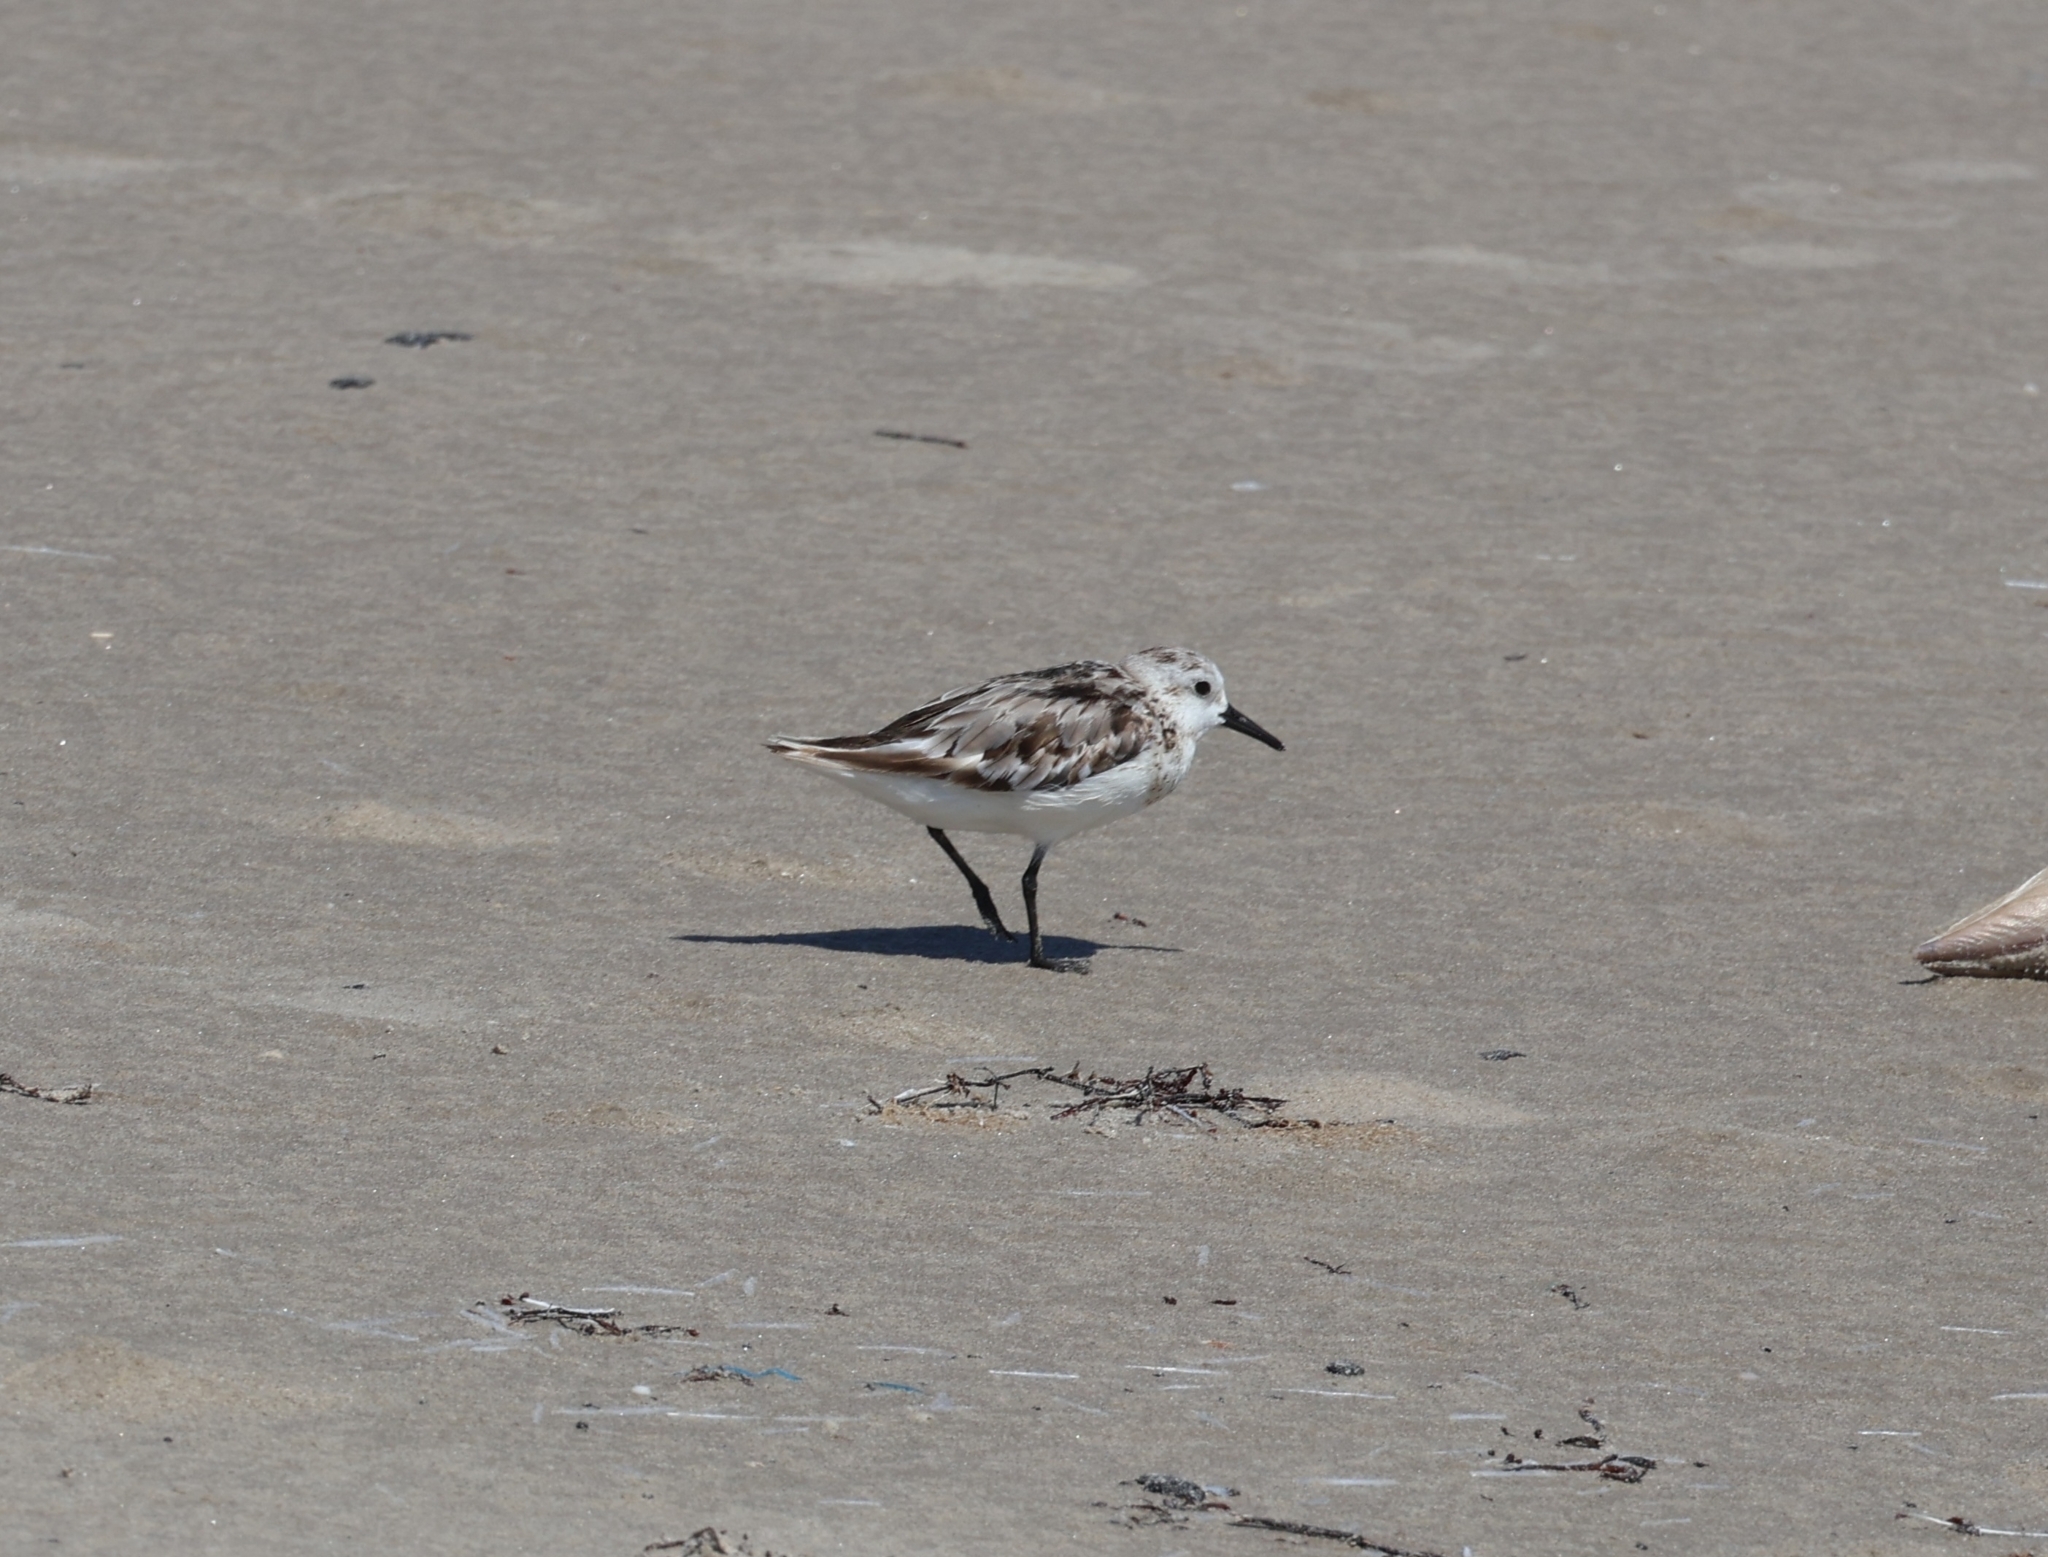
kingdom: Animalia
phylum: Chordata
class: Aves
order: Charadriiformes
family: Scolopacidae
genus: Calidris
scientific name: Calidris alba
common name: Sanderling
